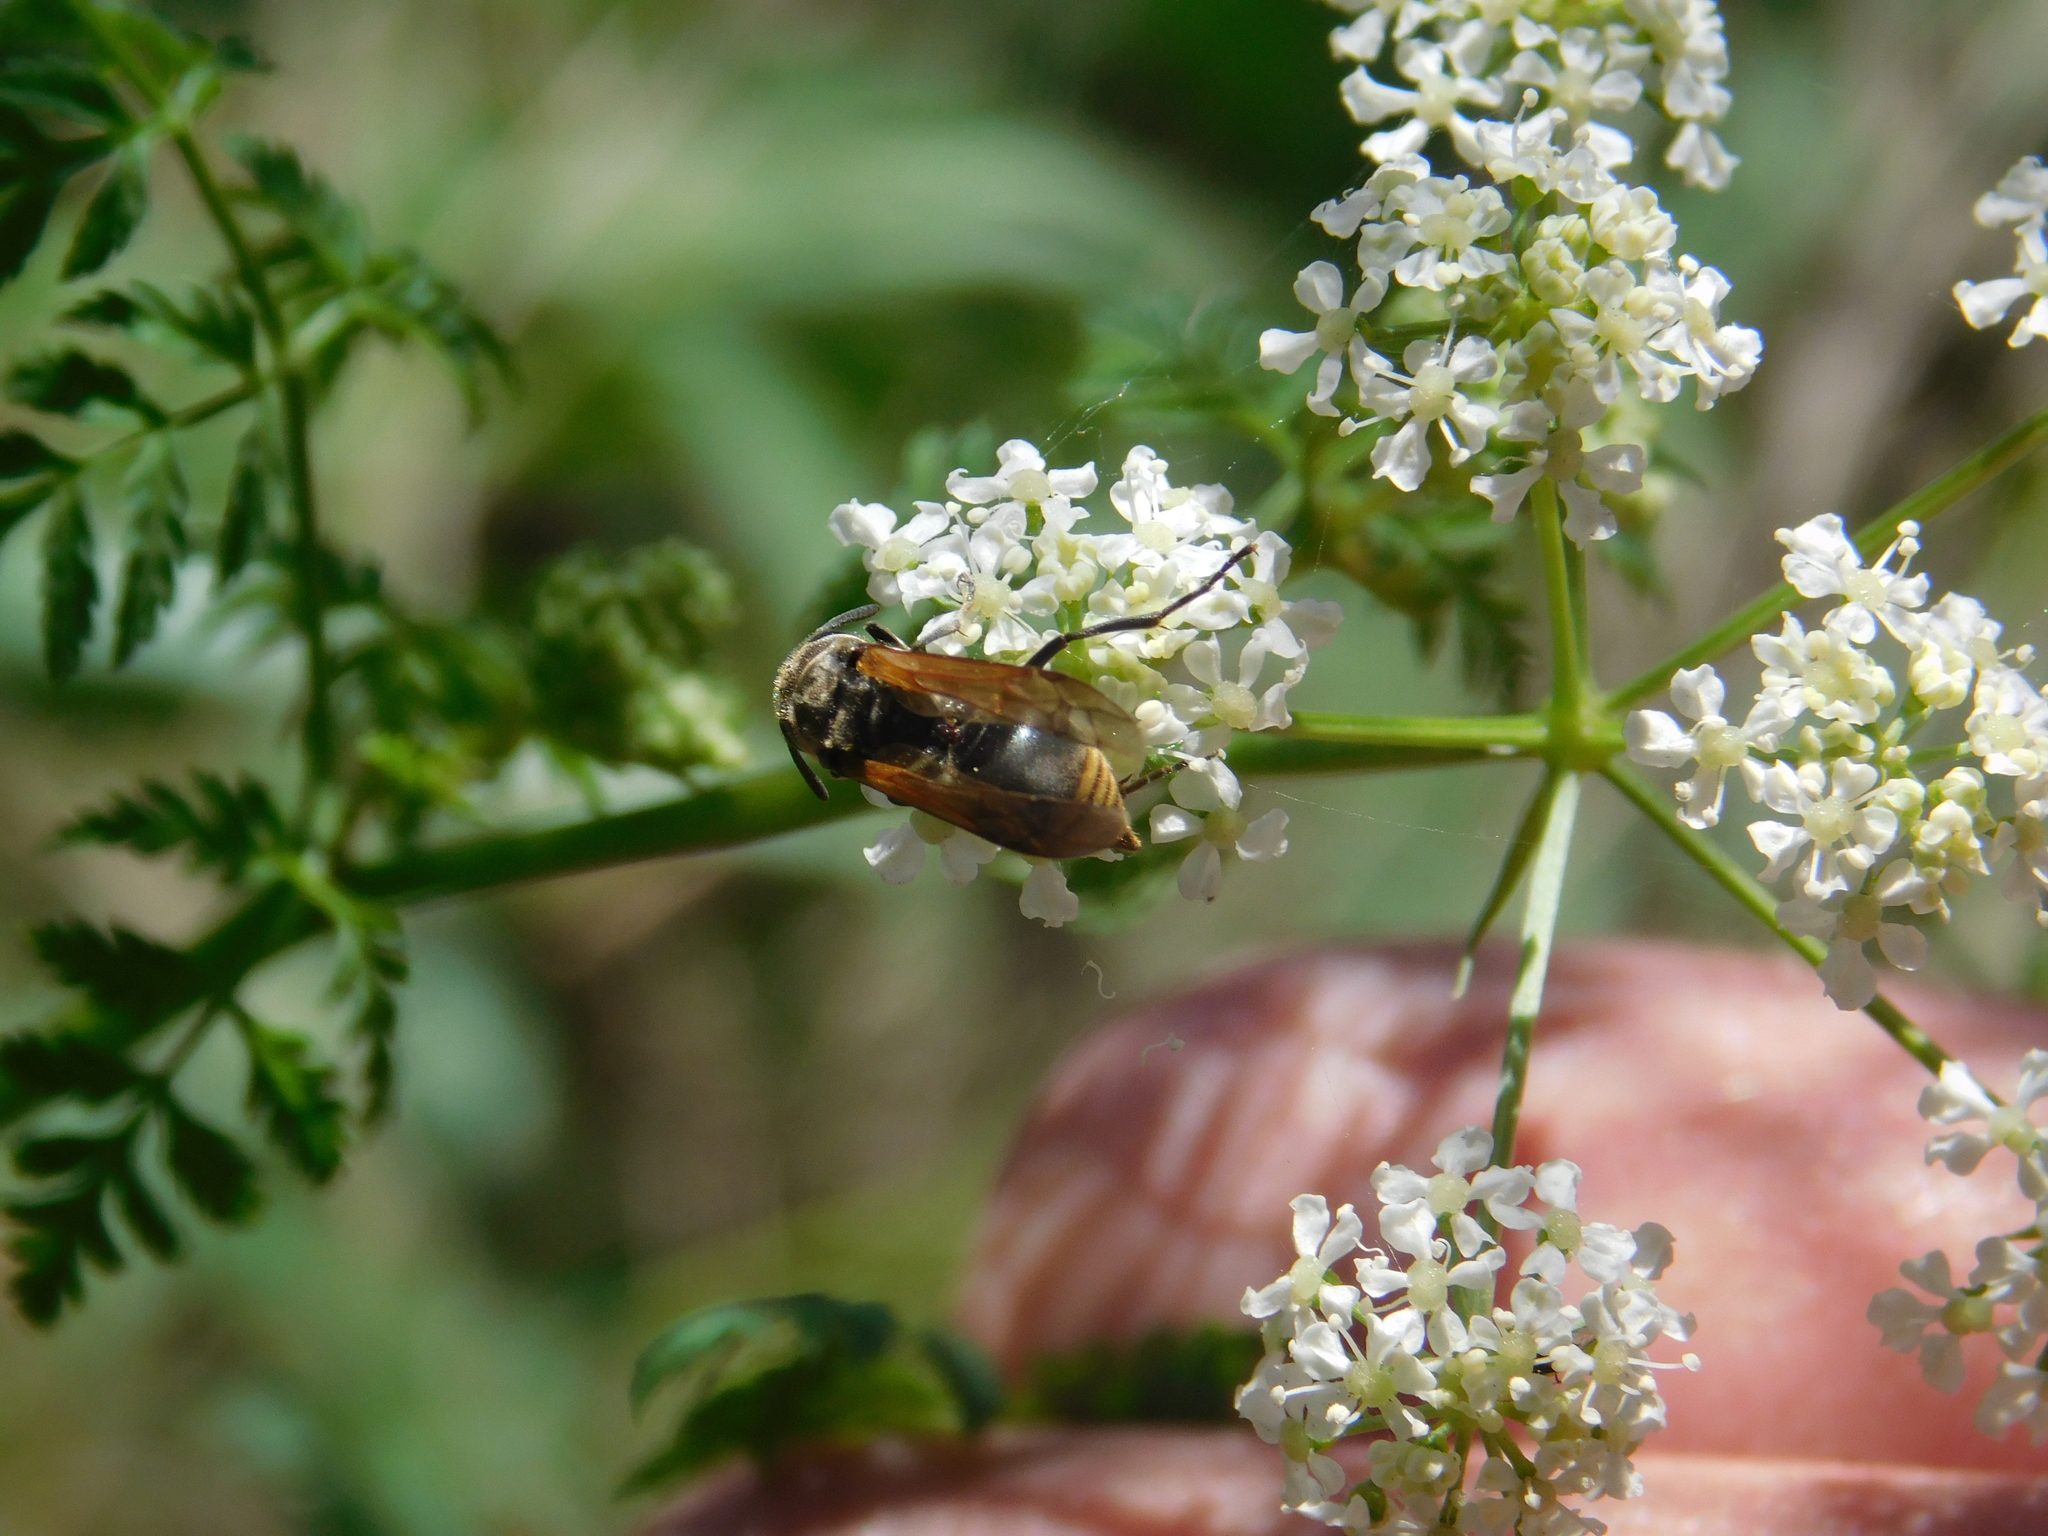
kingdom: Animalia
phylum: Arthropoda
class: Insecta
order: Hymenoptera
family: Vespidae
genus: Brachygastra
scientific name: Brachygastra lecheguana
